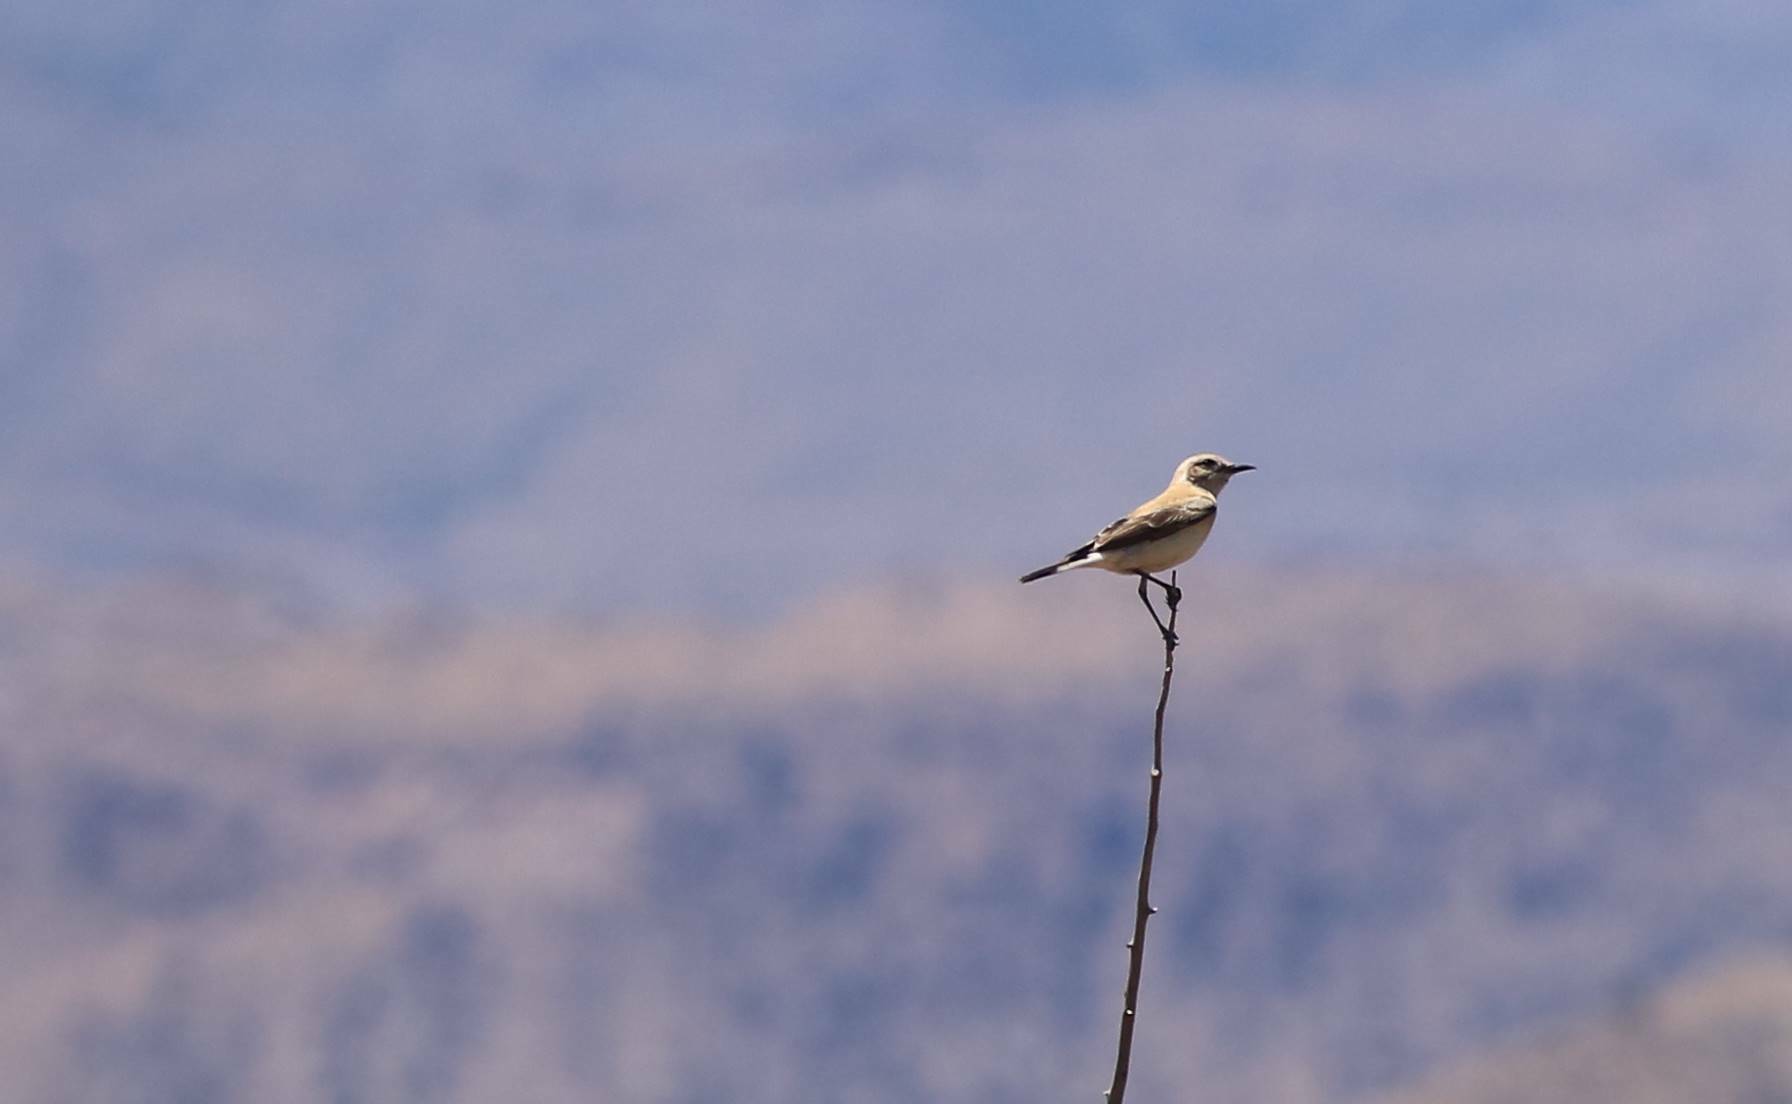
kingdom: Animalia
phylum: Chordata
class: Aves
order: Passeriformes
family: Muscicapidae
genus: Oenanthe
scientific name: Oenanthe hispanica
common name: Black-eared wheatear
